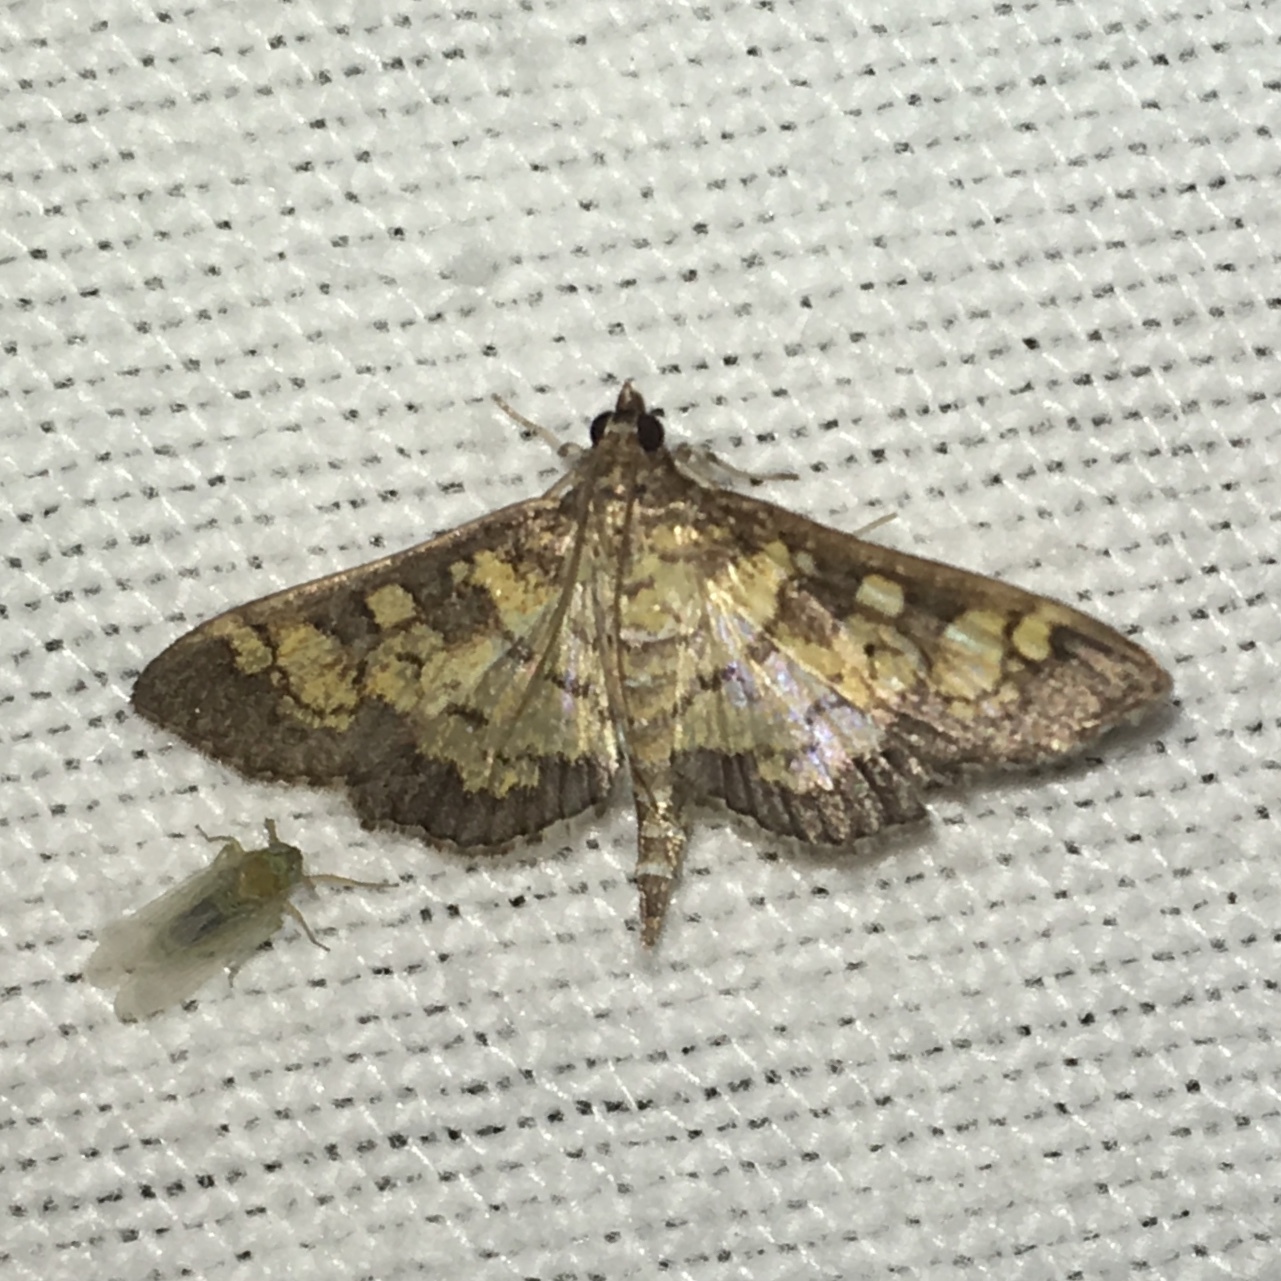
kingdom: Animalia
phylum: Arthropoda
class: Insecta
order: Lepidoptera
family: Crambidae
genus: Epipagis
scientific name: Epipagis adipaloides
